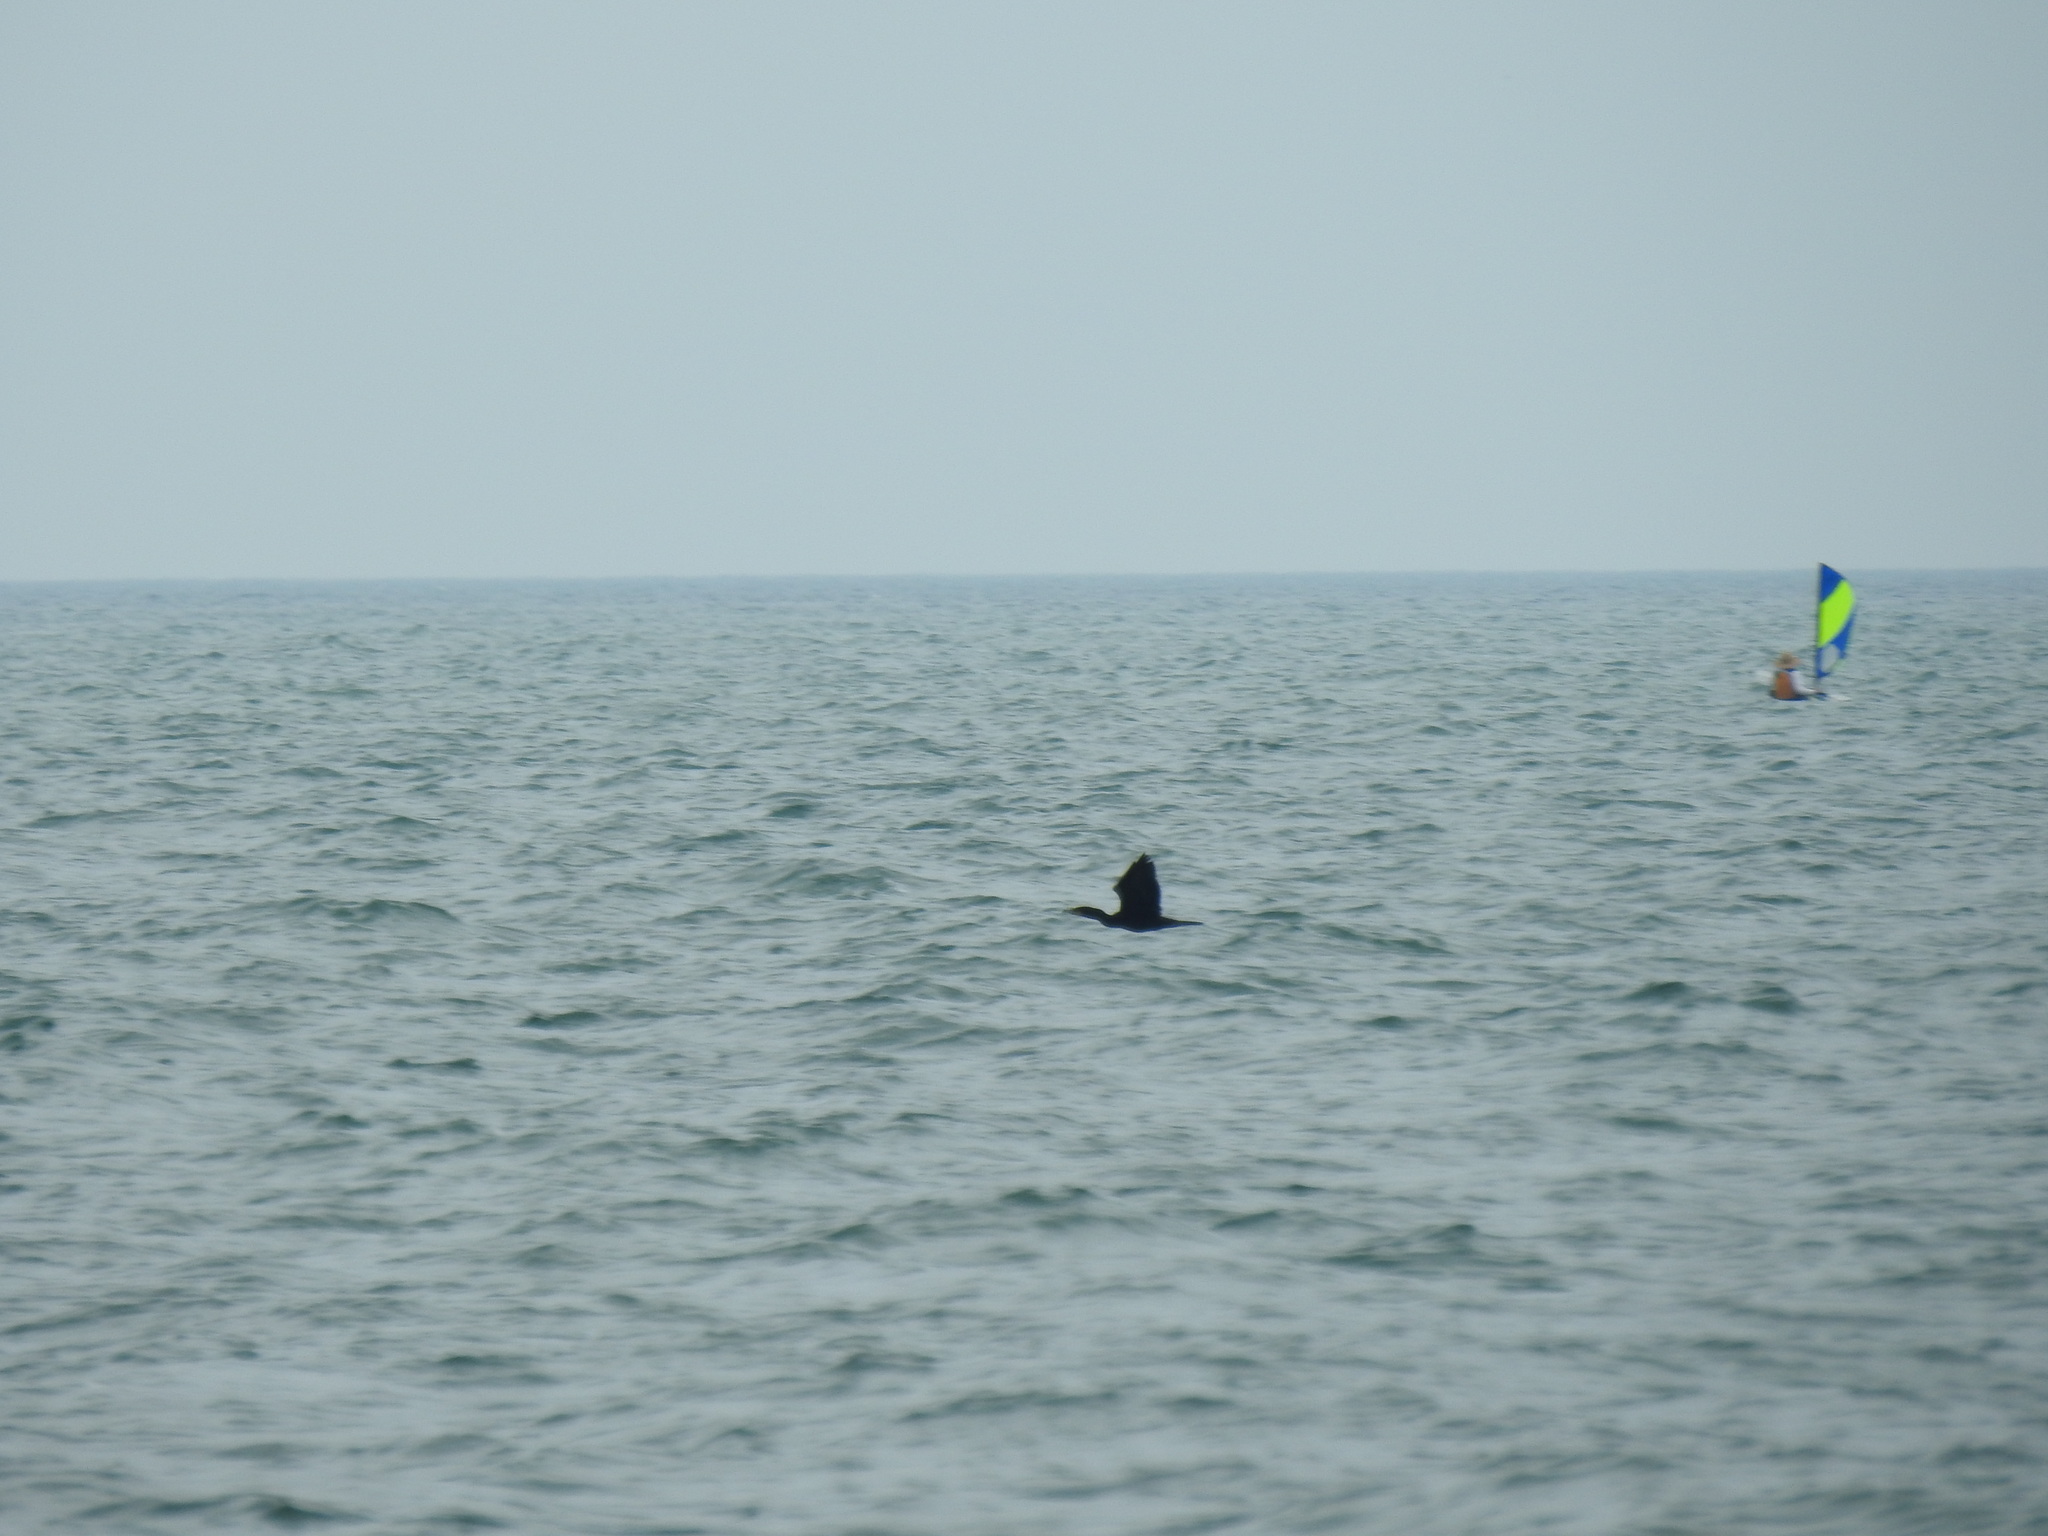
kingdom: Animalia
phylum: Chordata
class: Aves
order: Suliformes
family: Phalacrocoracidae
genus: Phalacrocorax
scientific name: Phalacrocorax auritus
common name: Double-crested cormorant
